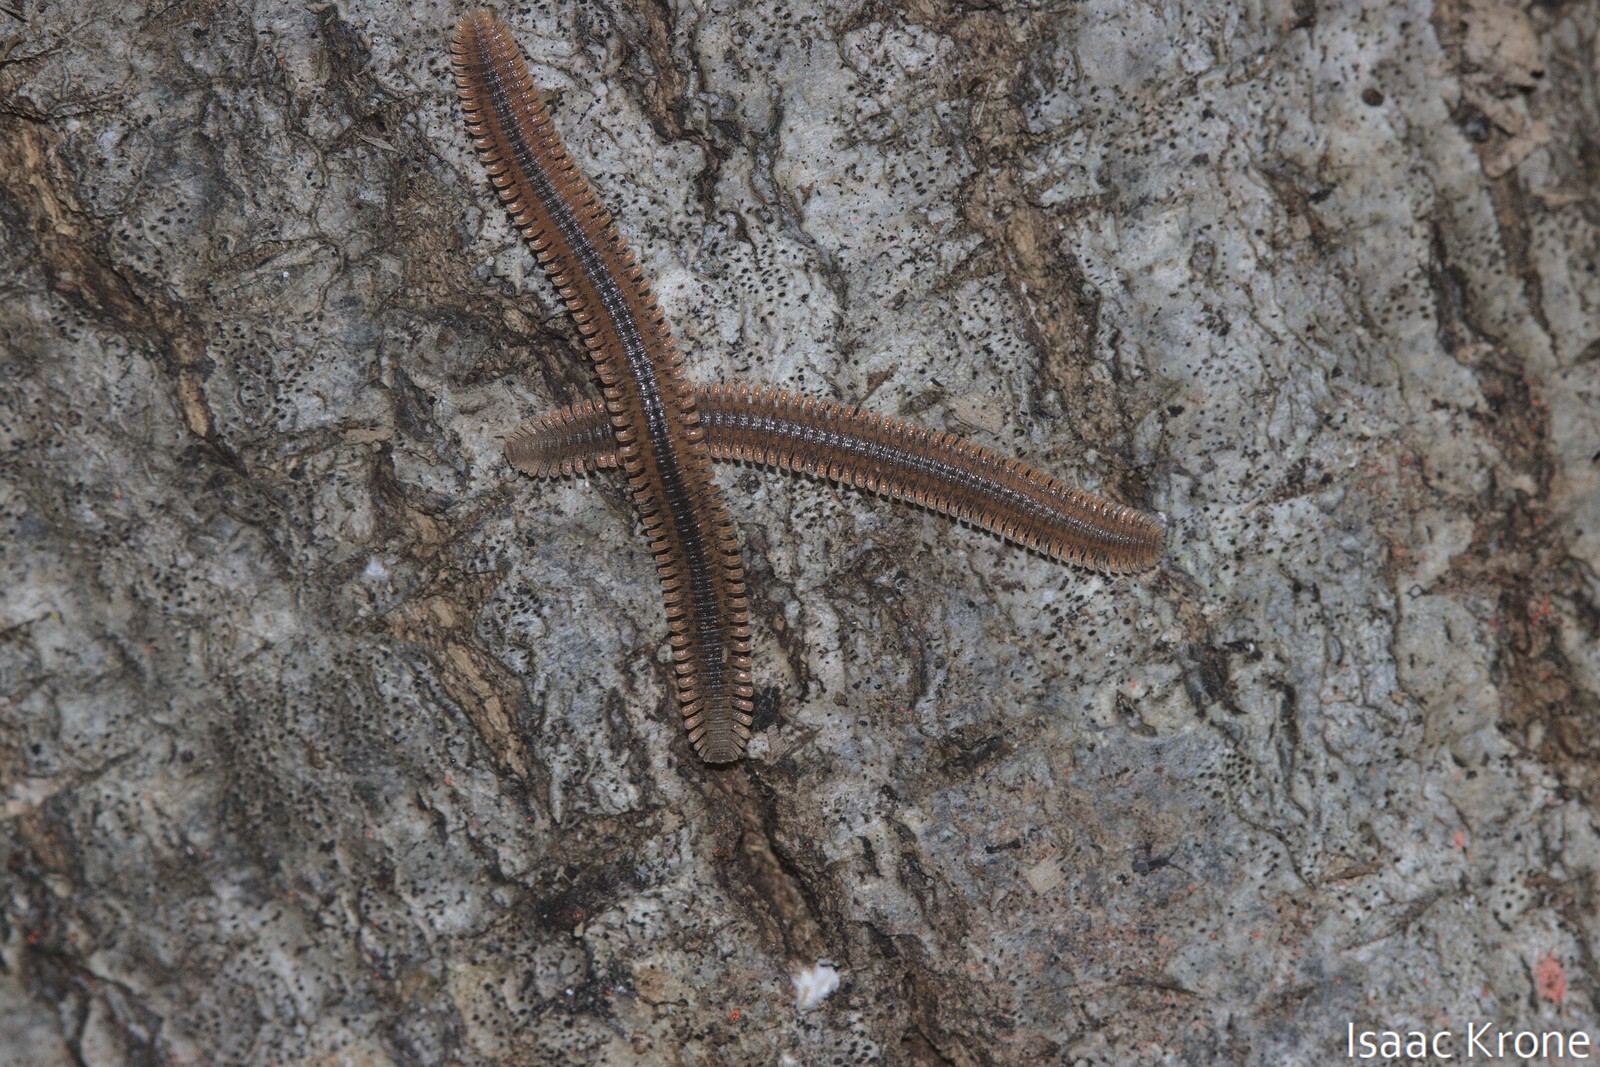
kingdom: Animalia
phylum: Arthropoda
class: Diplopoda
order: Platydesmida
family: Andrognathidae
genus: Brachycybe
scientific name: Brachycybe producta
